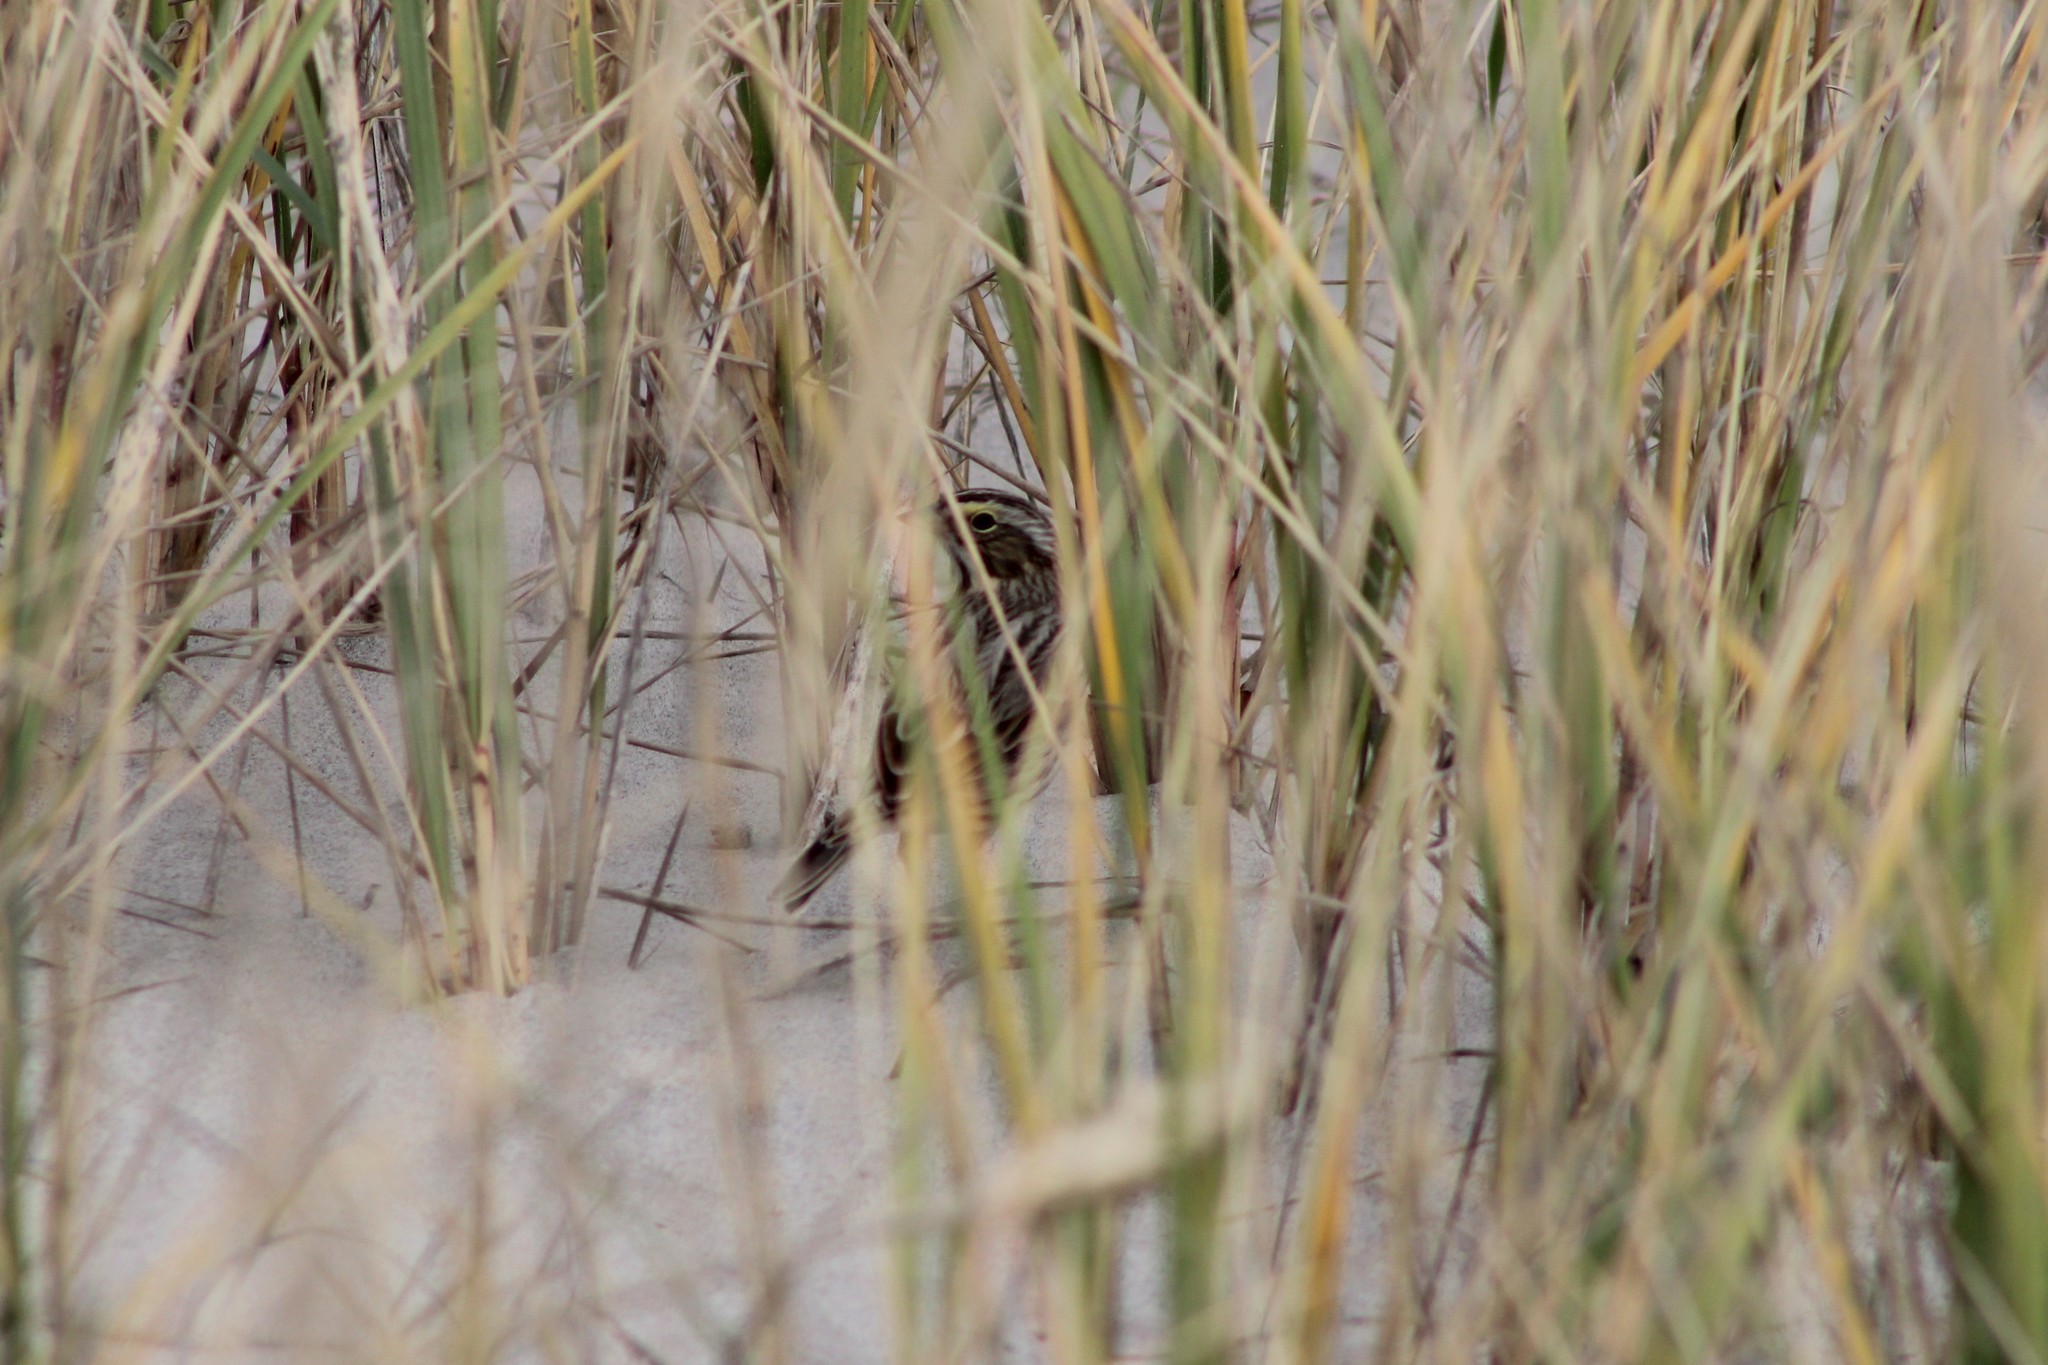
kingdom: Animalia
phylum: Chordata
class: Aves
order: Passeriformes
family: Passerellidae
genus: Passerculus
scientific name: Passerculus sandwichensis
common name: Savannah sparrow
